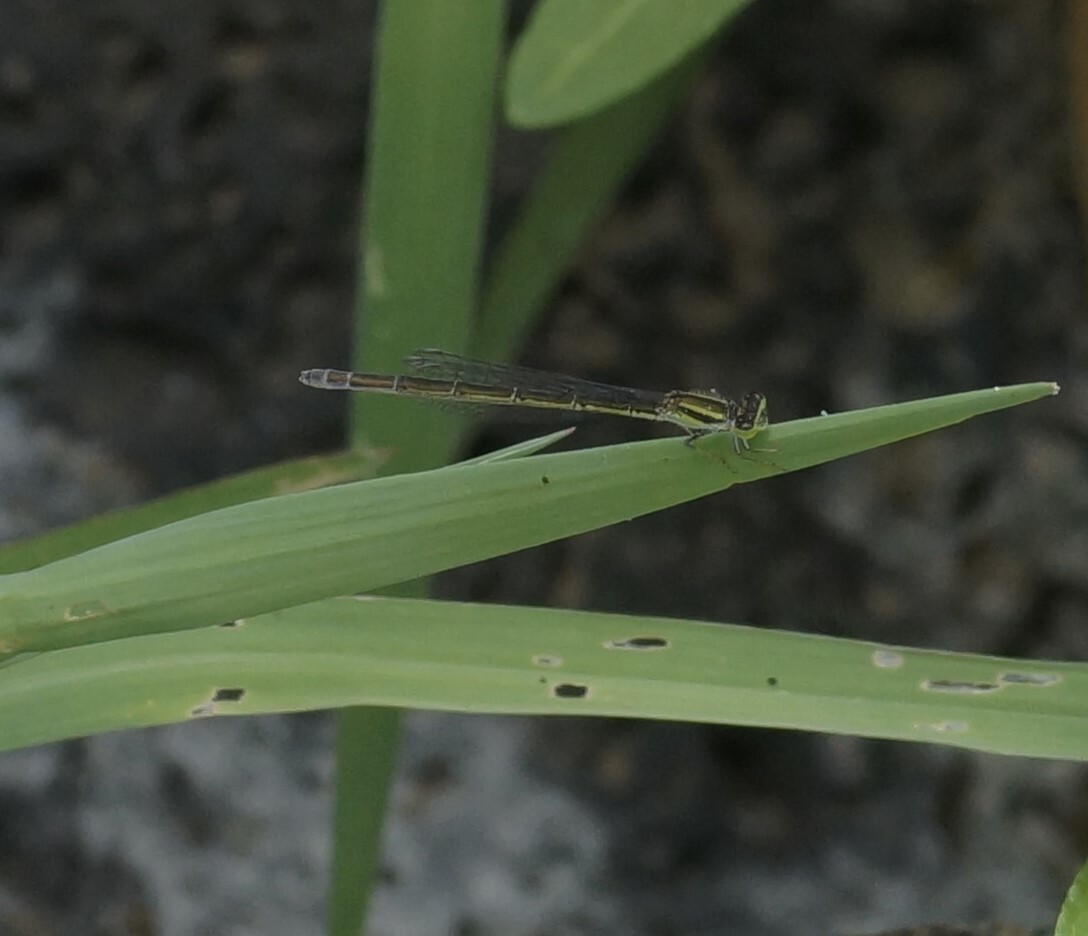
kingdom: Animalia
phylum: Arthropoda
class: Insecta
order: Odonata
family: Coenagrionidae
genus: Ischnura
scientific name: Ischnura aurora
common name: Gossamer damselfly
